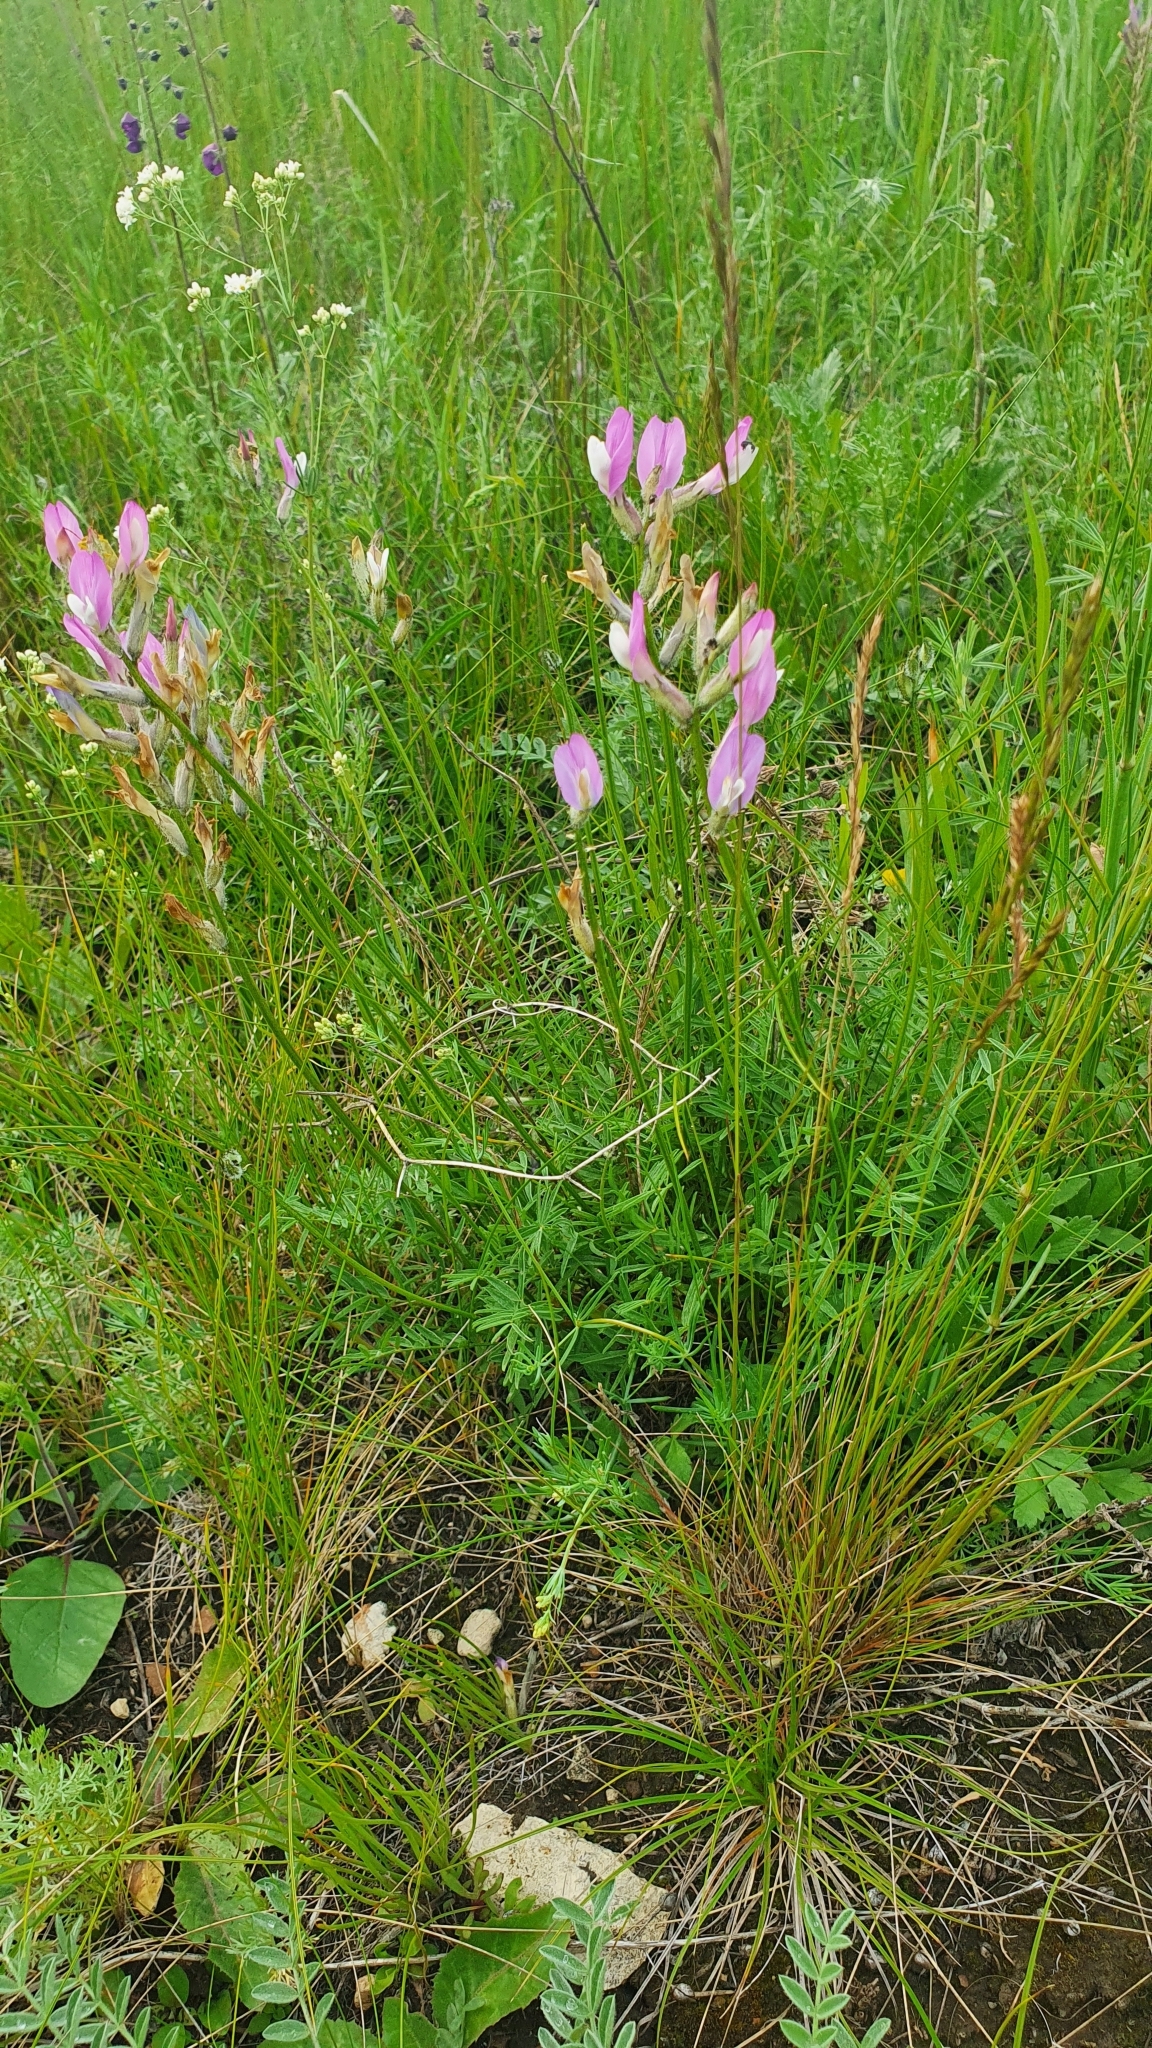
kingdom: Plantae
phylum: Tracheophyta
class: Magnoliopsida
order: Fabales
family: Fabaceae
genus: Astragalus
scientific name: Astragalus macropus
